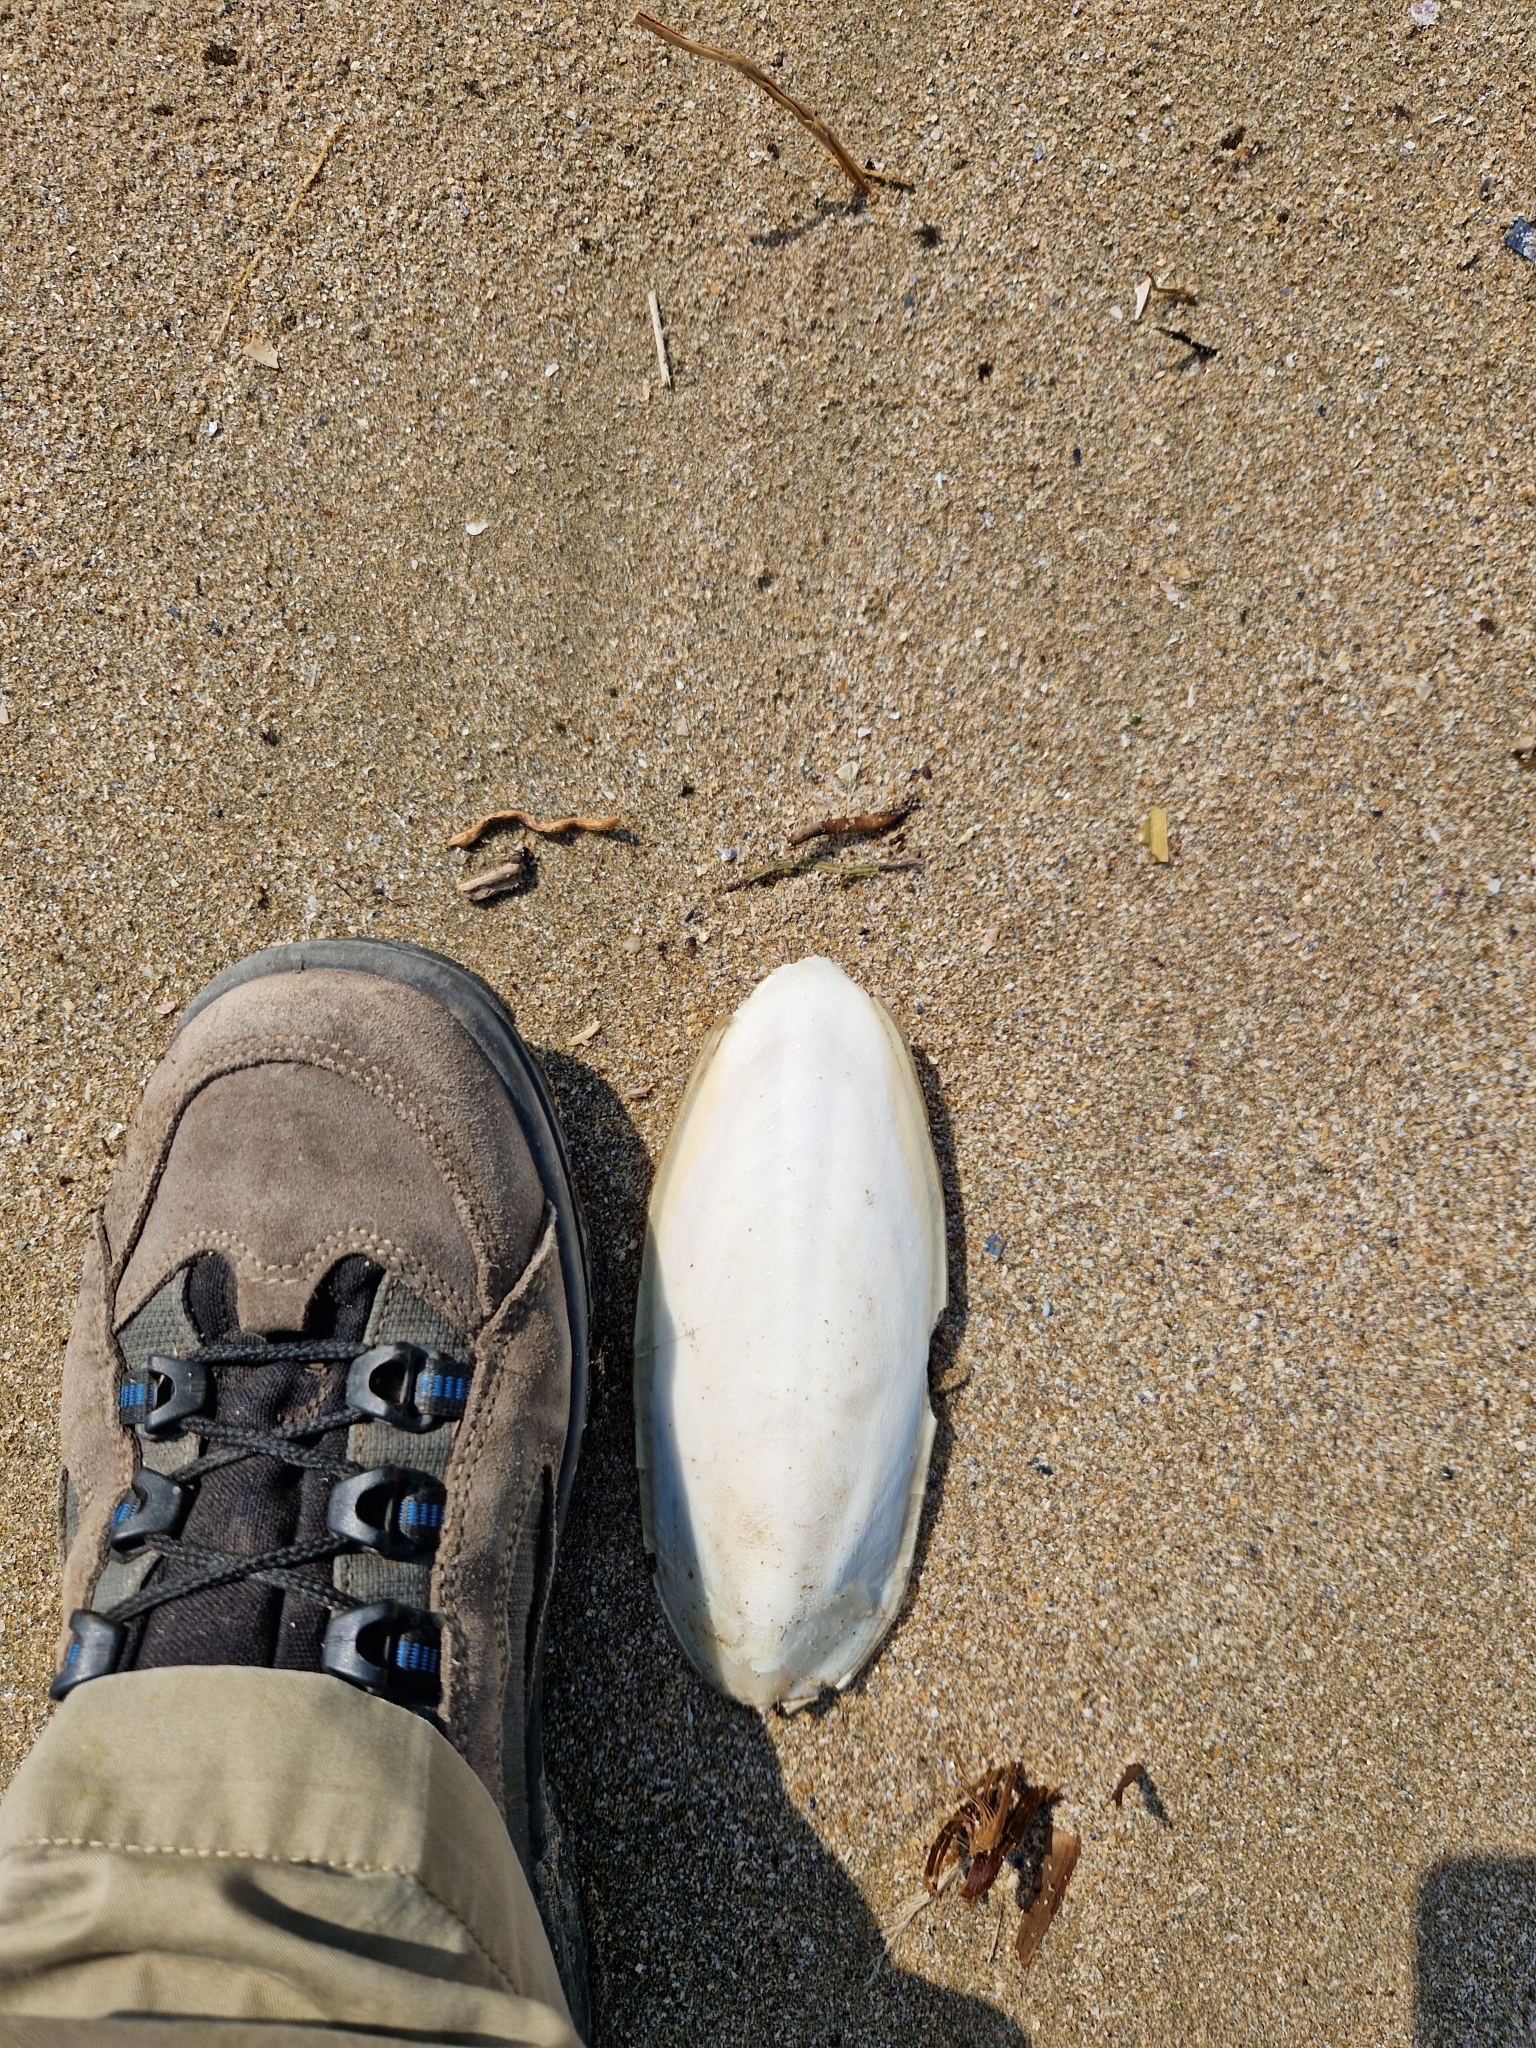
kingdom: Animalia
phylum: Mollusca
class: Cephalopoda
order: Sepiida
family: Sepiidae
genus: Sepia
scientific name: Sepia officinalis
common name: Common cuttlefish
